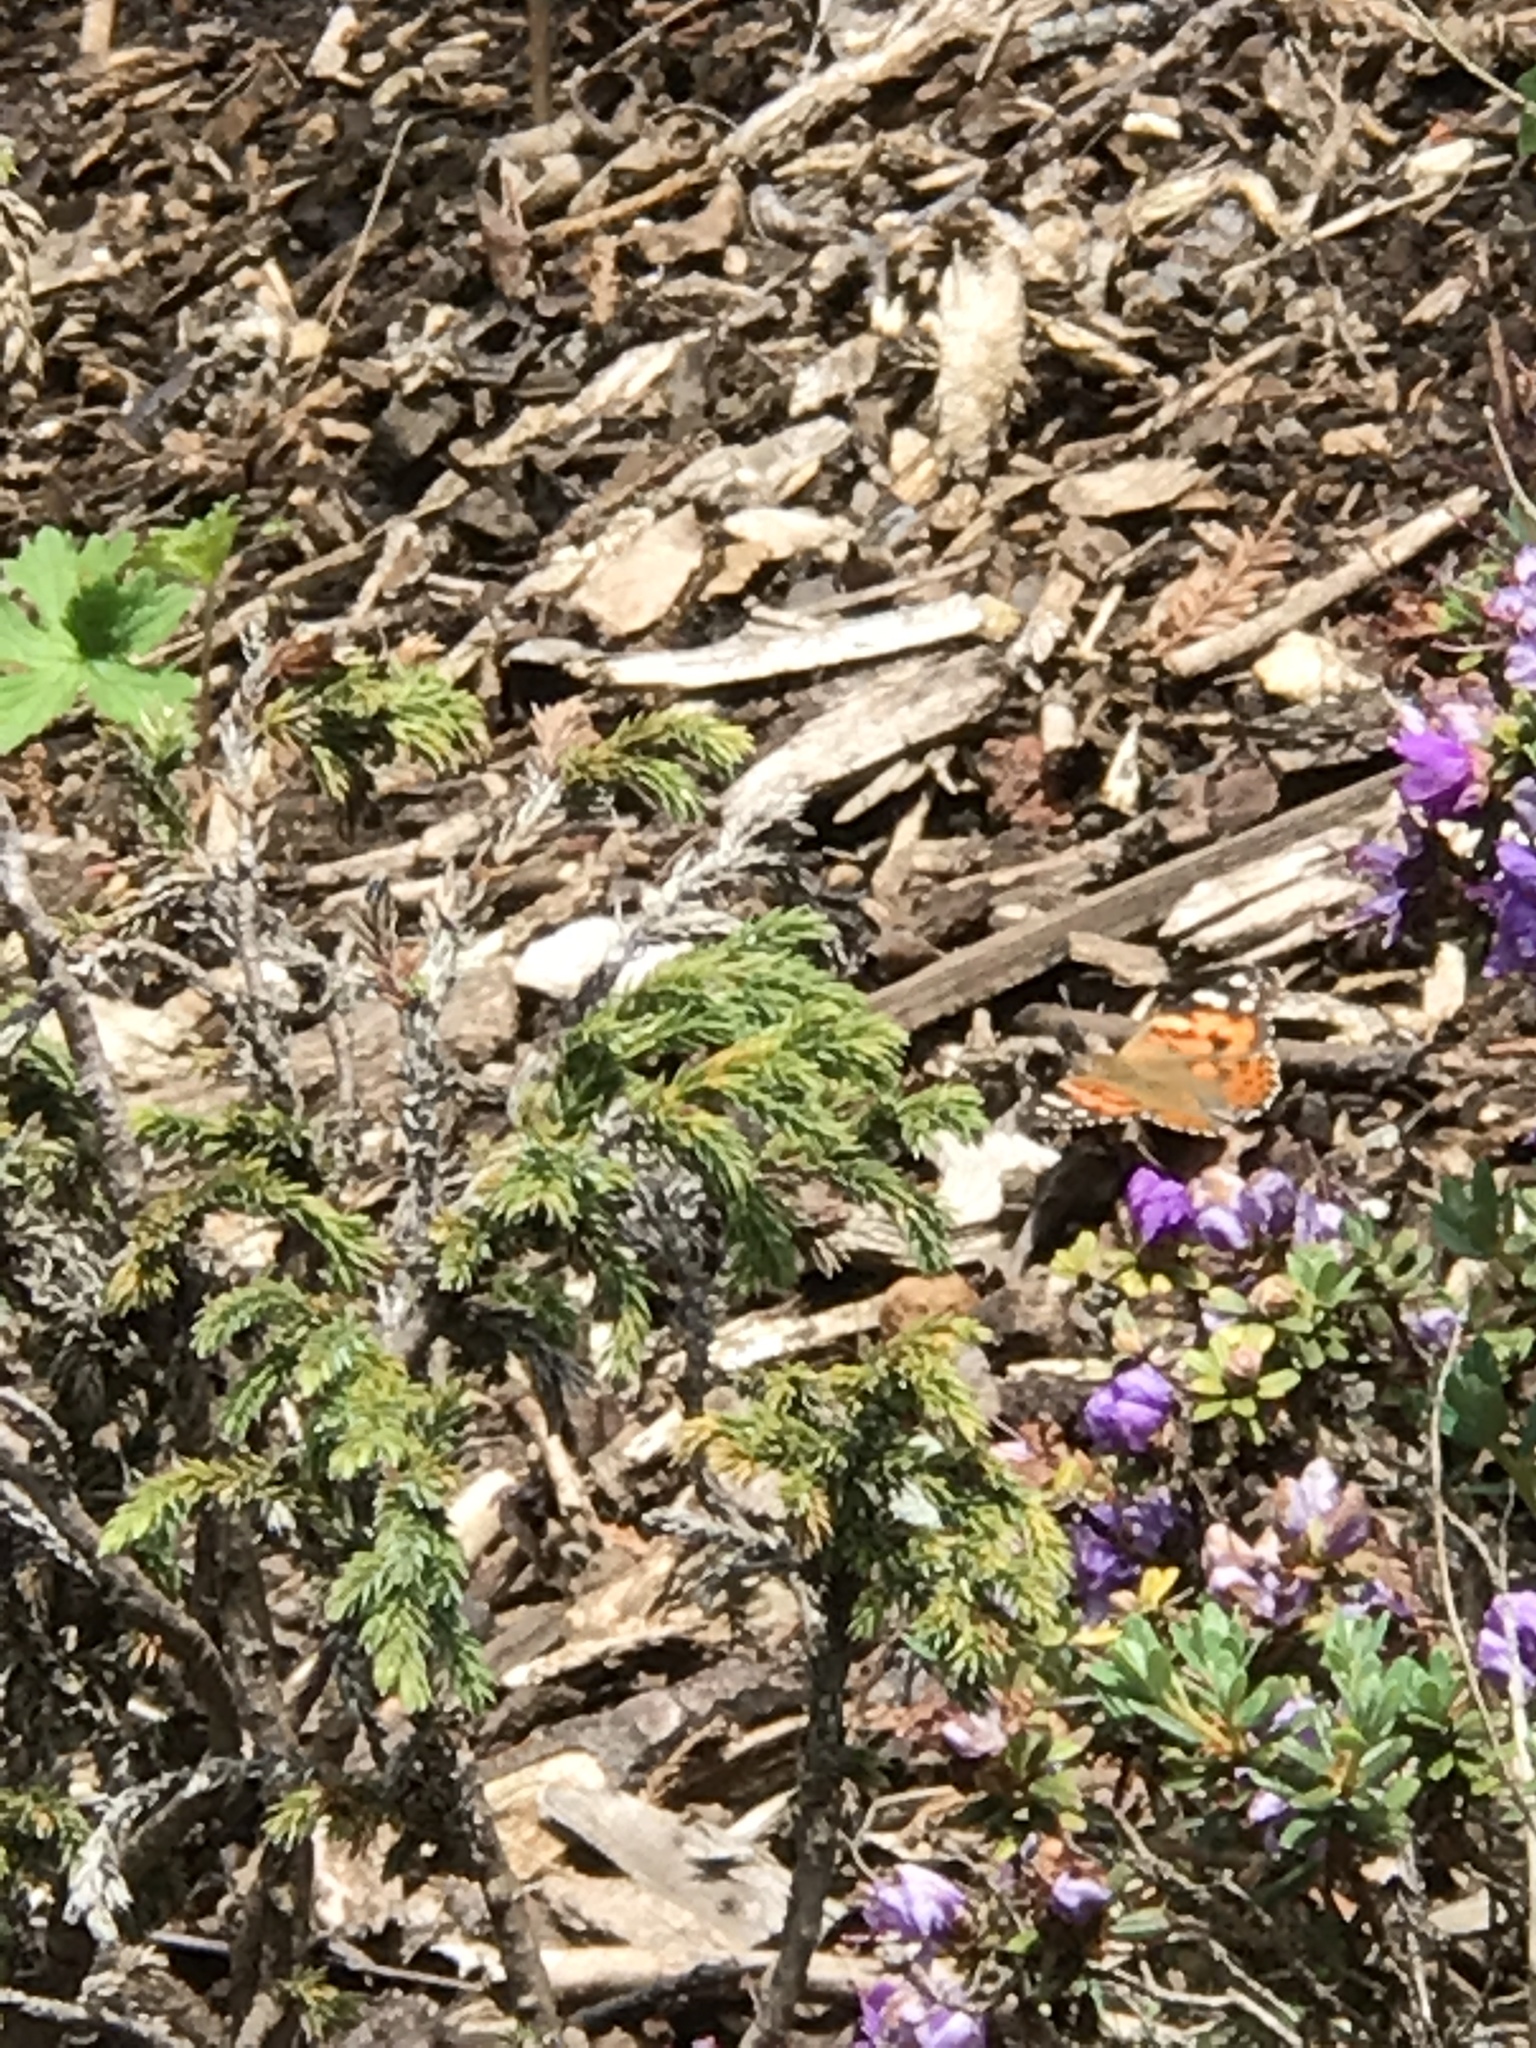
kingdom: Animalia
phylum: Arthropoda
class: Insecta
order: Lepidoptera
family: Nymphalidae
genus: Vanessa
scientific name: Vanessa cardui
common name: Painted lady
